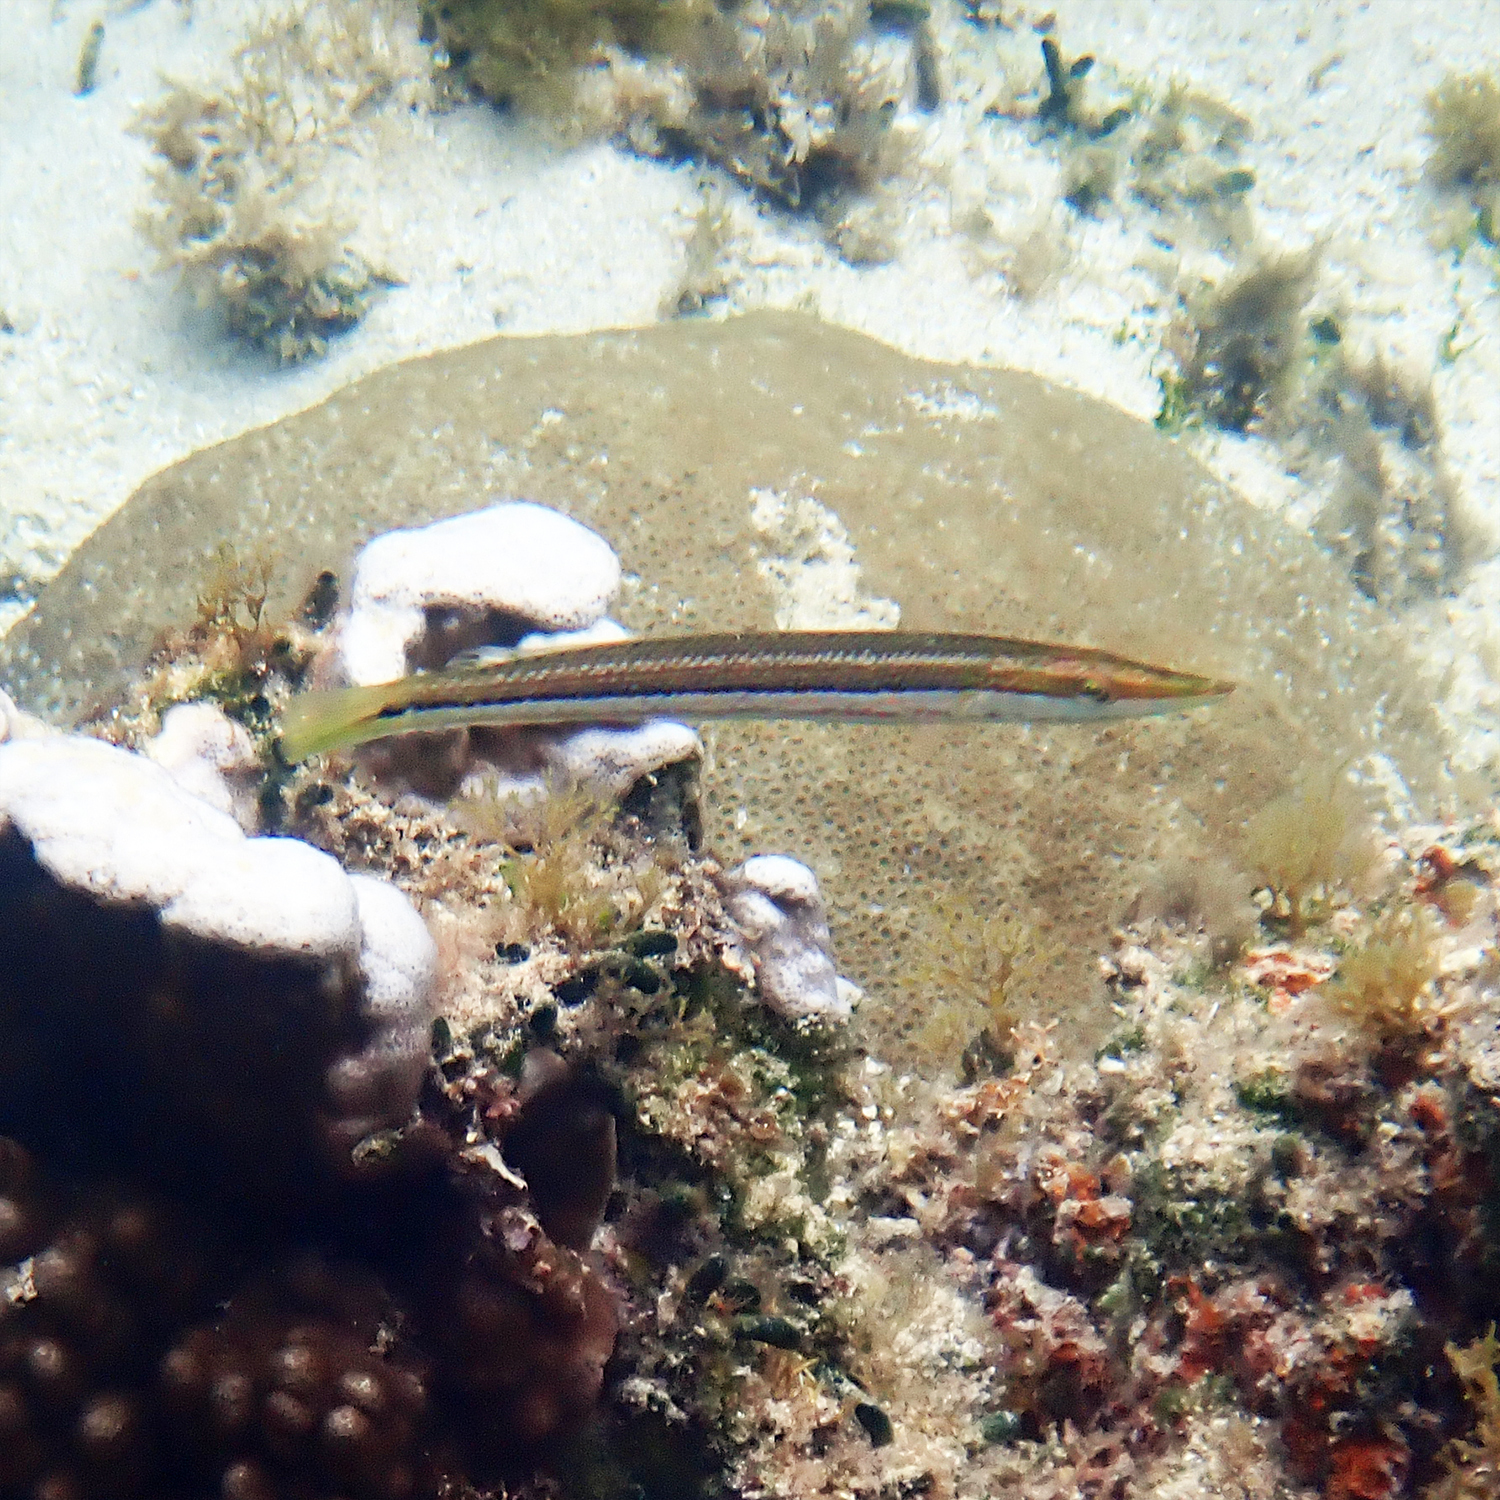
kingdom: Animalia
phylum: Chordata
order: Perciformes
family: Labridae
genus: Cheilio
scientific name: Cheilio inermis
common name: Cigar wrasse
